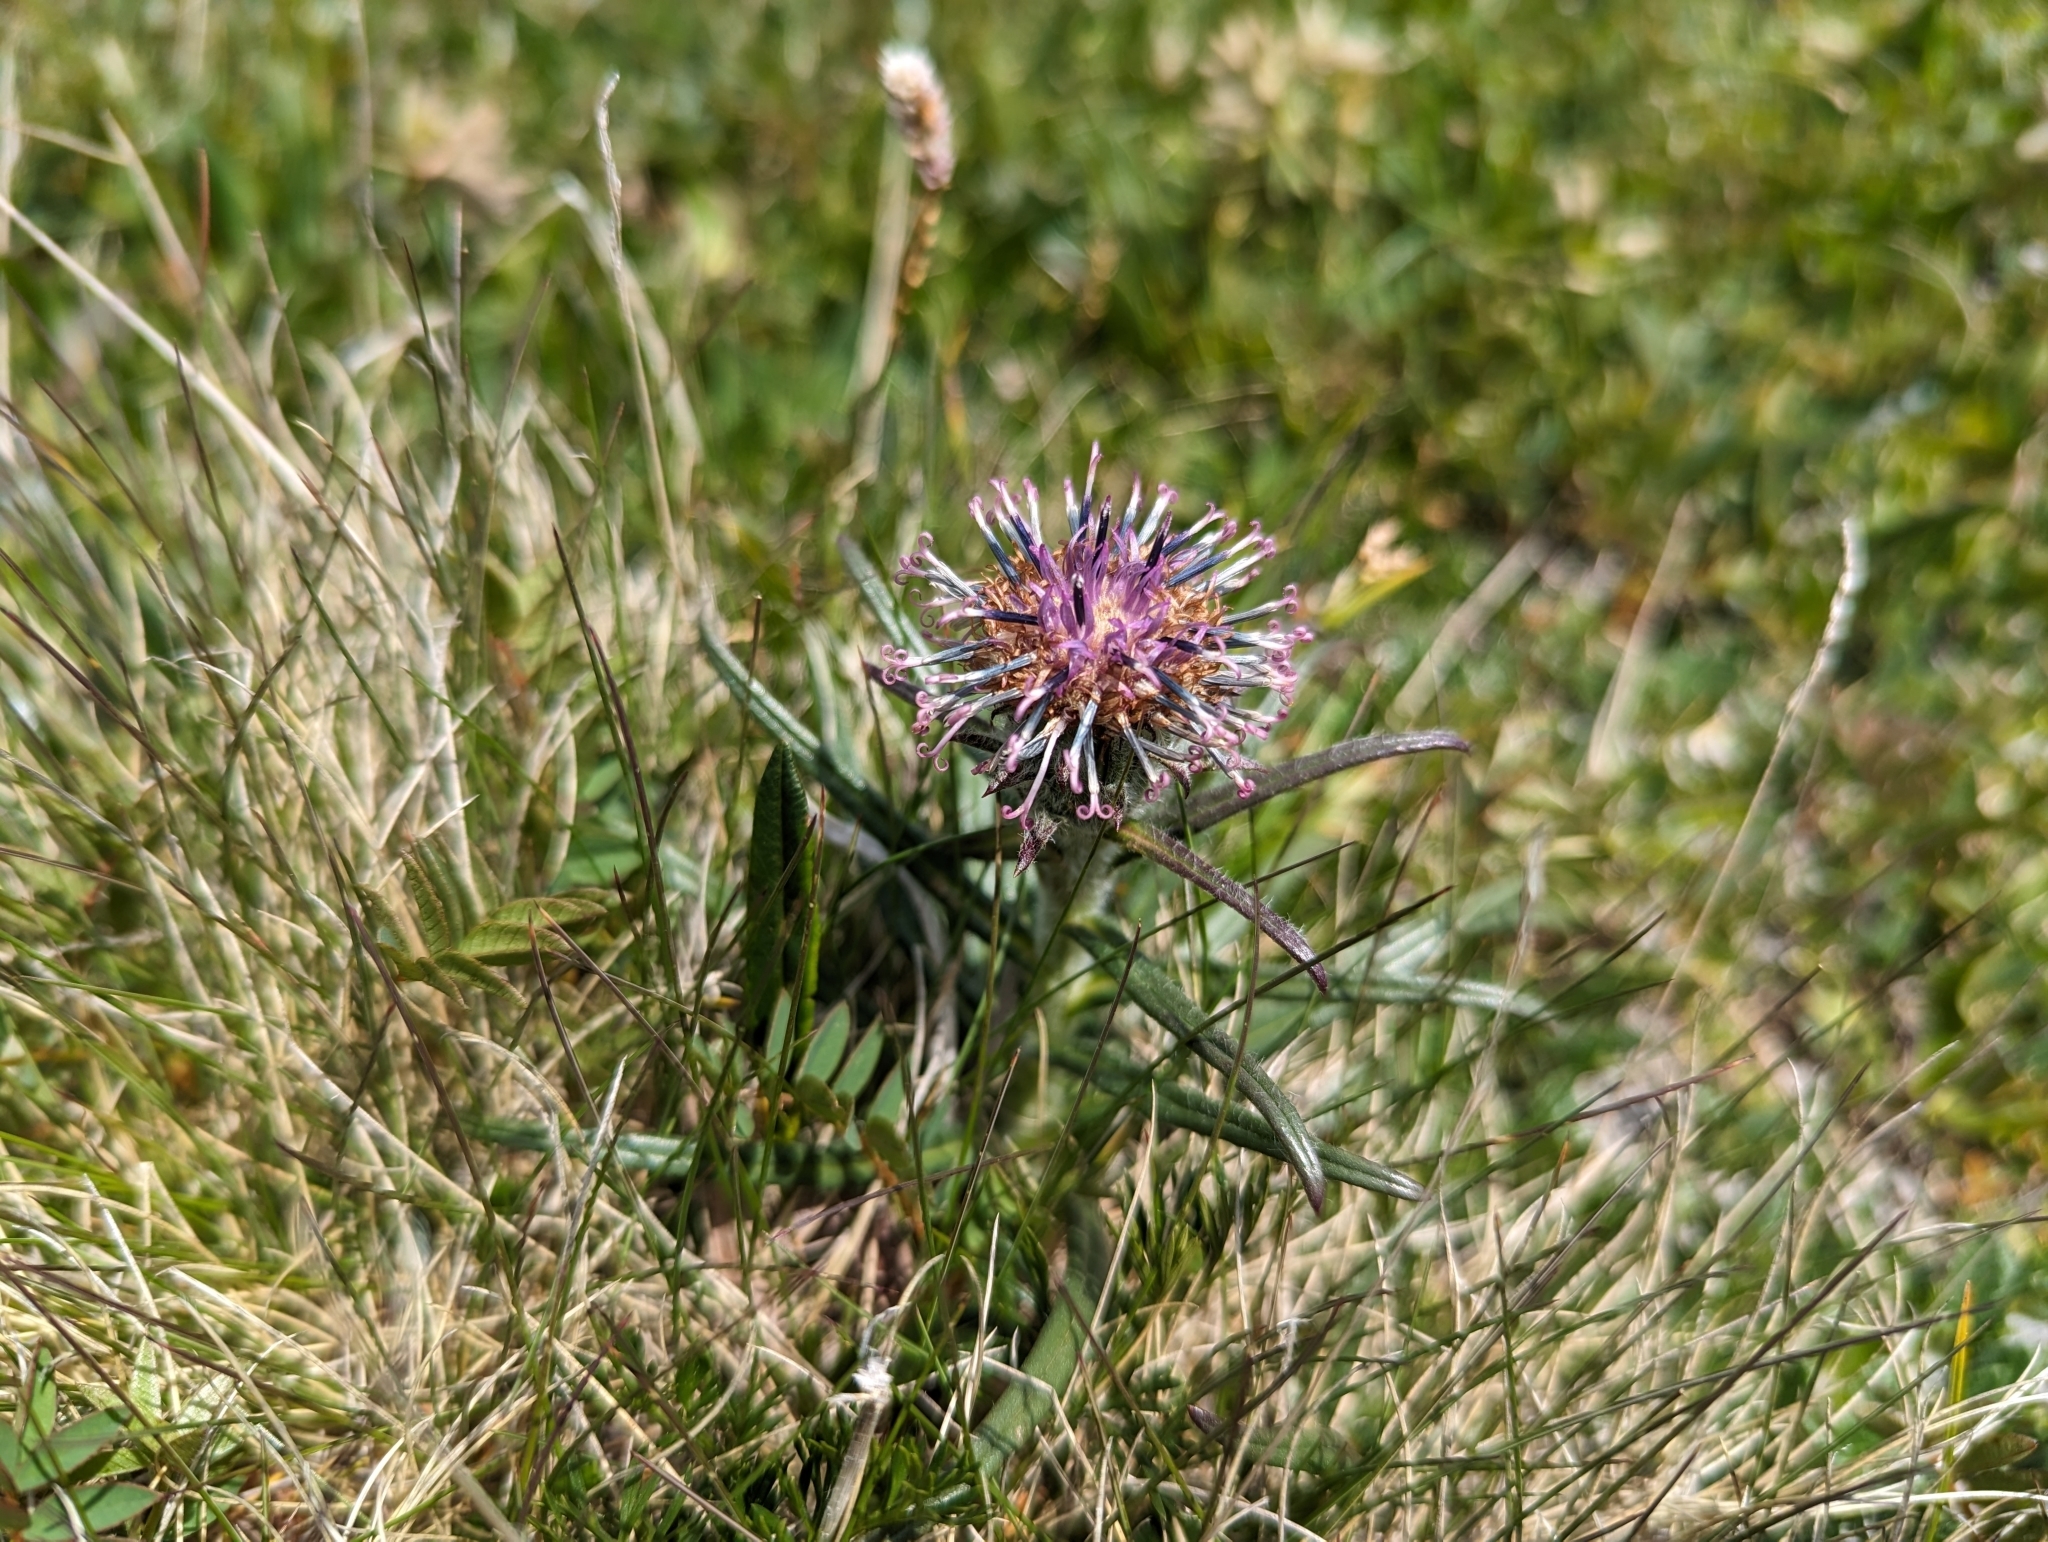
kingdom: Plantae
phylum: Tracheophyta
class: Magnoliopsida
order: Asterales
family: Asteraceae
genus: Saussurea
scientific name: Saussurea pygmaea
